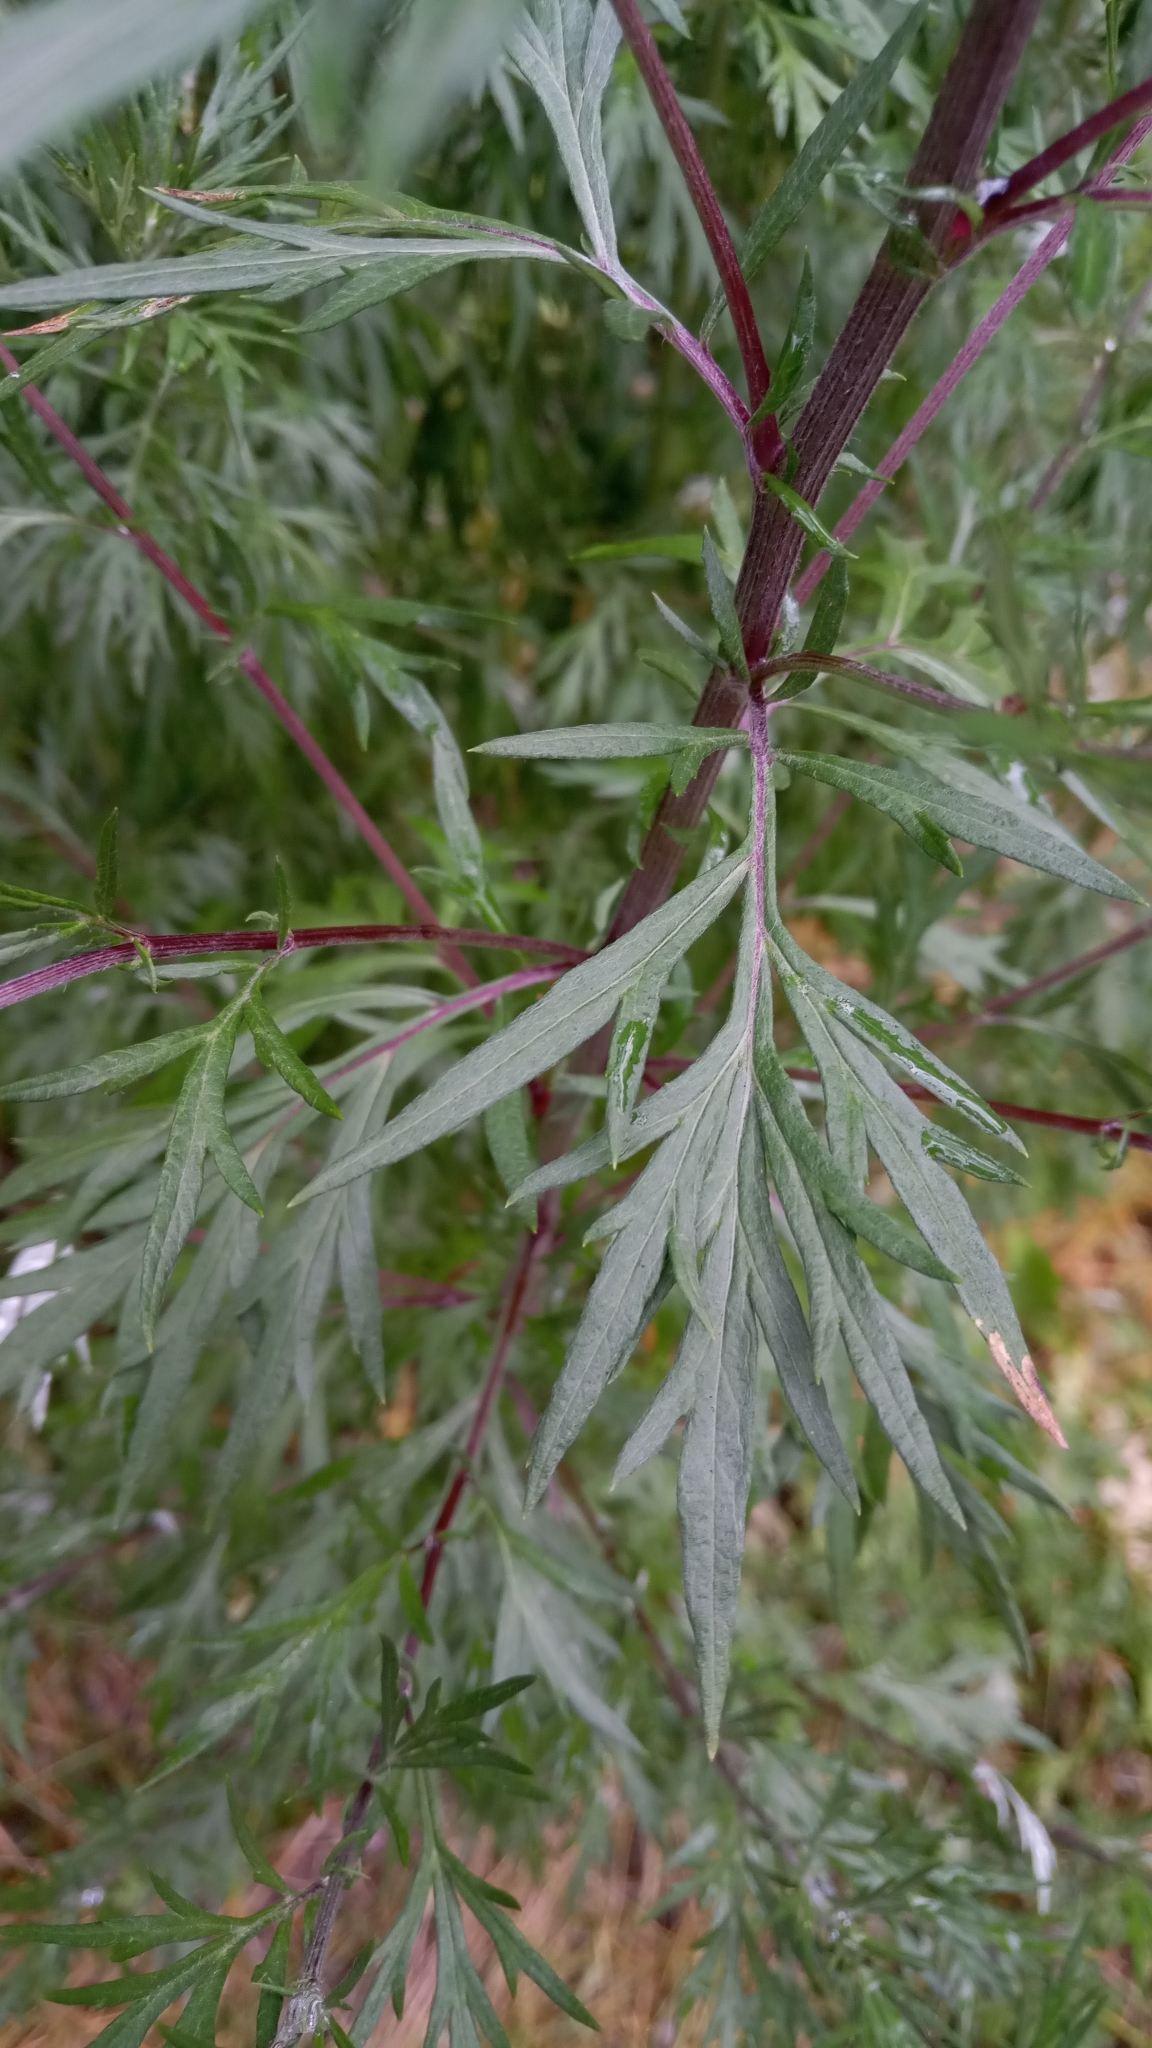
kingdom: Plantae
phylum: Tracheophyta
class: Magnoliopsida
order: Asterales
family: Asteraceae
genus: Artemisia
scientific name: Artemisia vulgaris
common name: Mugwort
